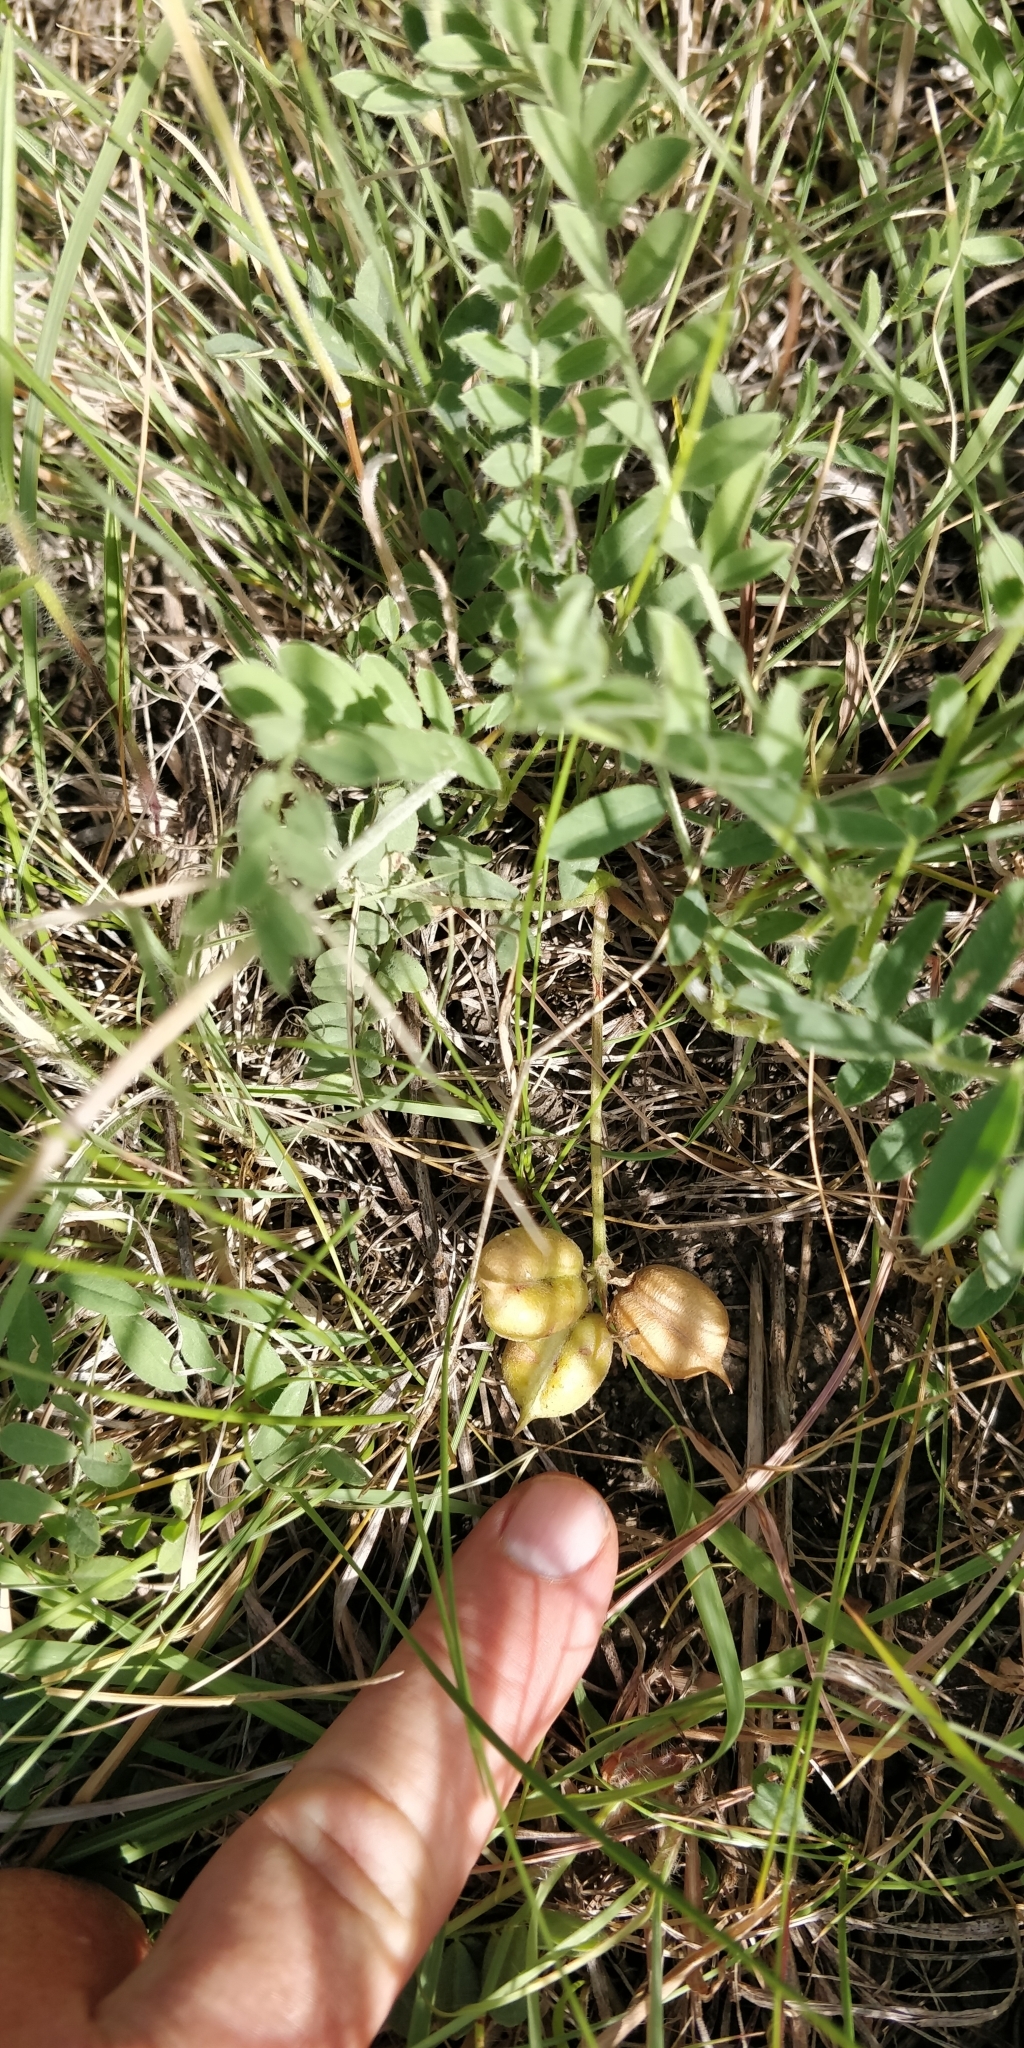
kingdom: Plantae
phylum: Tracheophyta
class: Magnoliopsida
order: Fabales
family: Fabaceae
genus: Astragalus
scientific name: Astragalus plattensis
